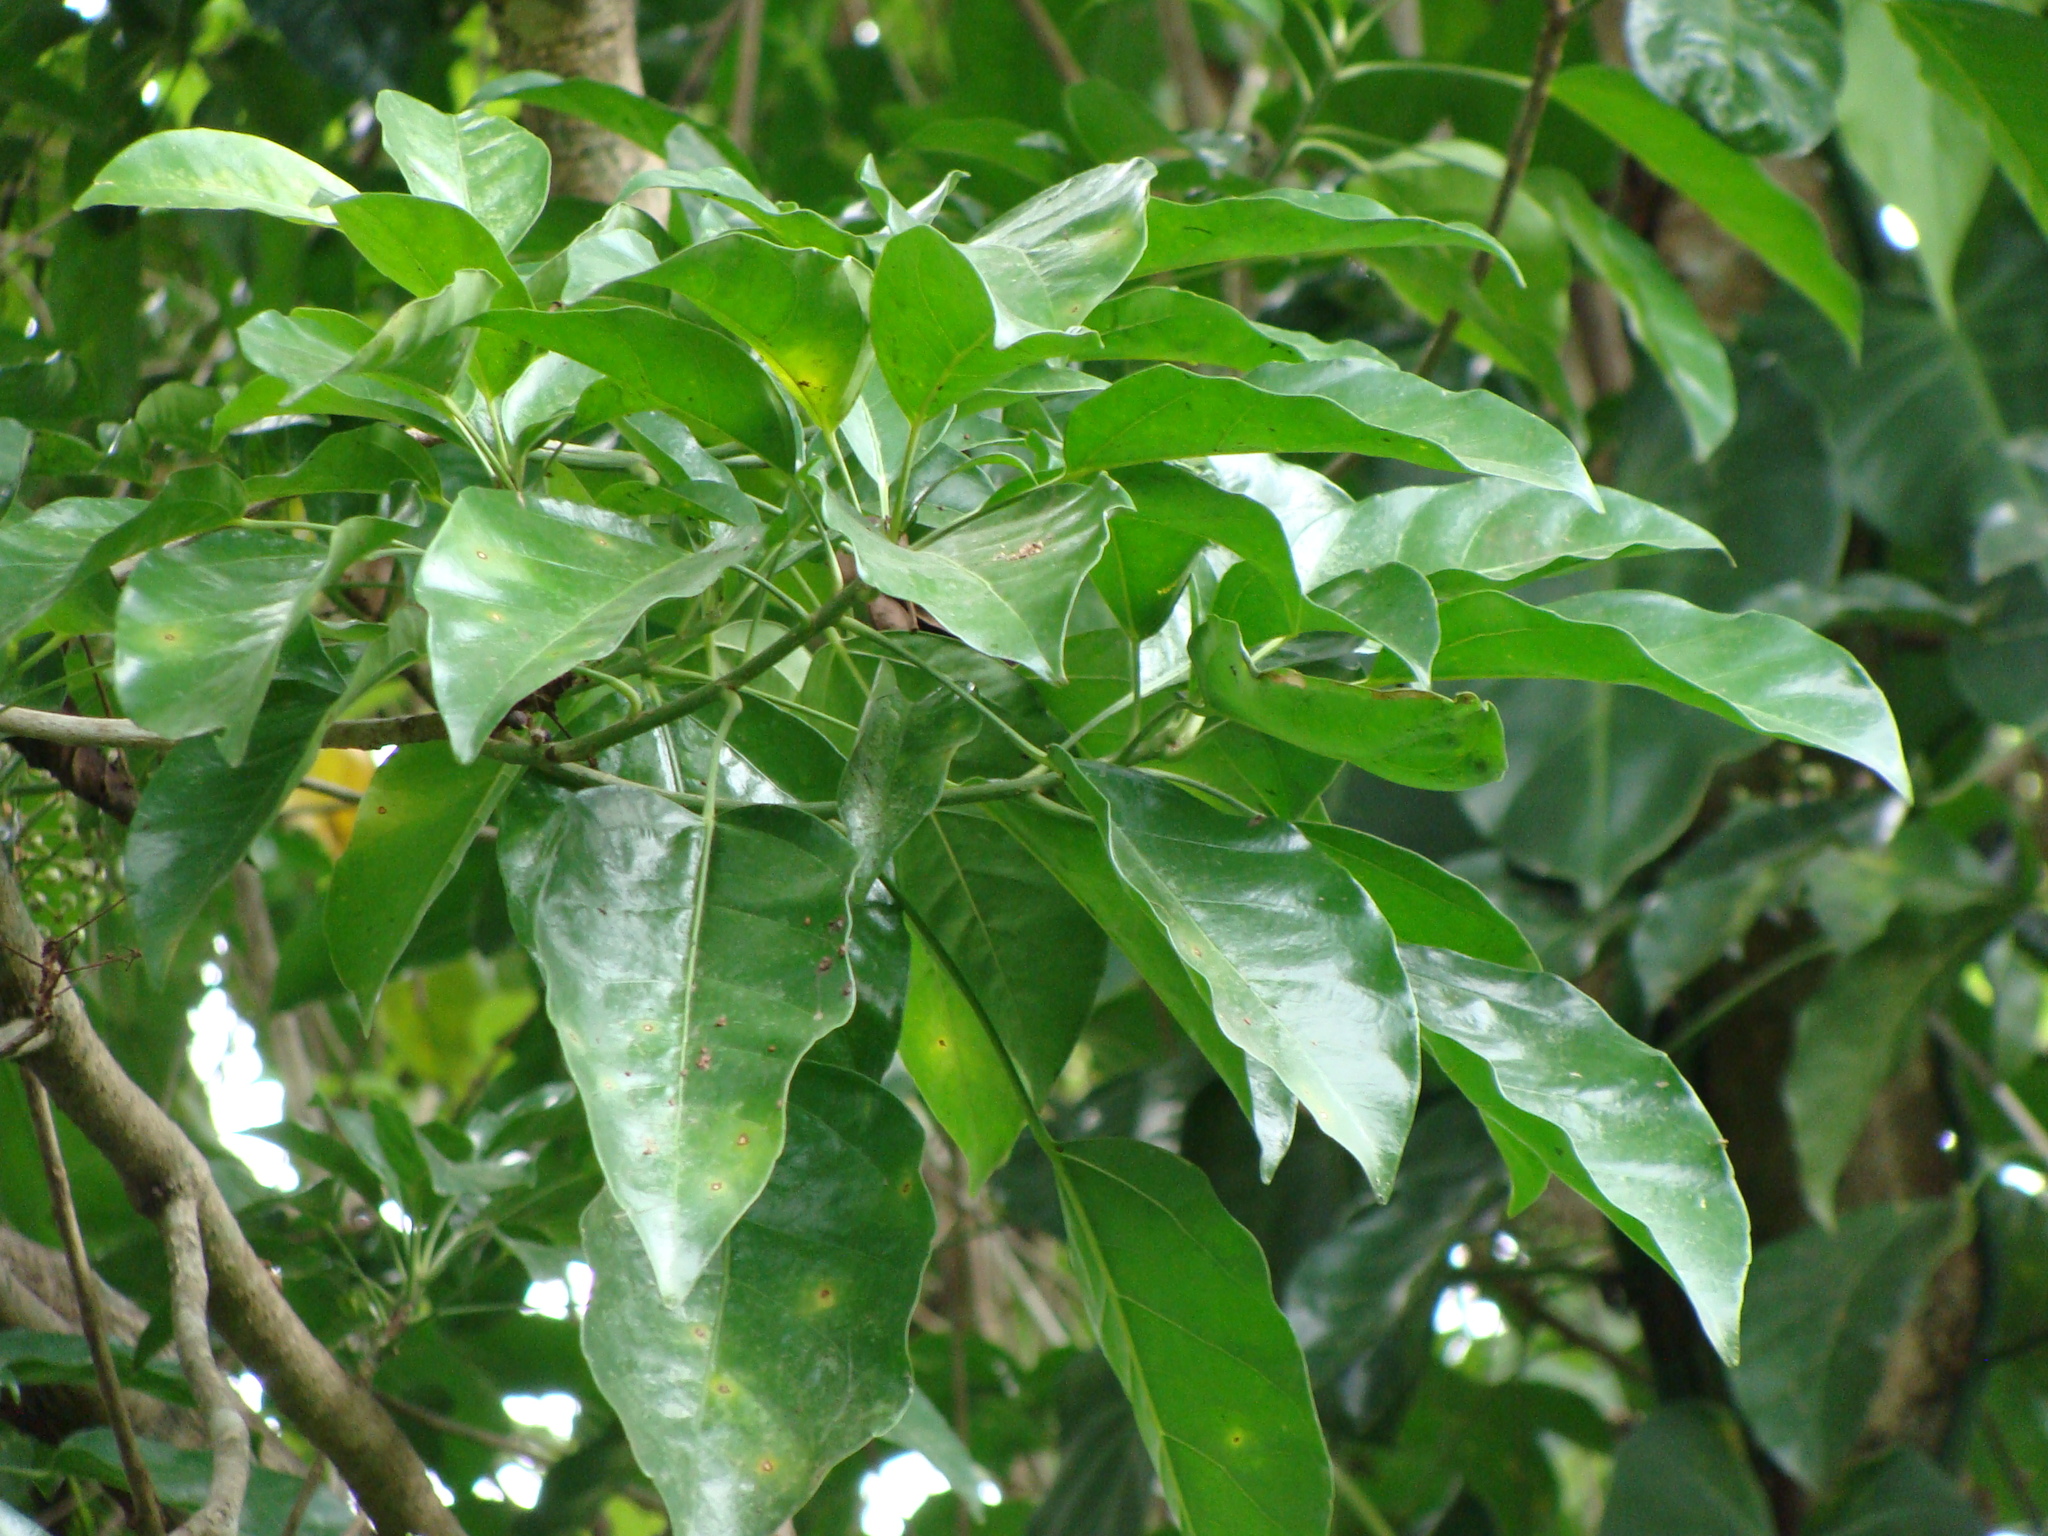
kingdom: Plantae
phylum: Tracheophyta
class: Magnoliopsida
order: Apiales
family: Araliaceae
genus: Dendropanax
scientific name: Dendropanax arboreus
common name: Potato-wood
